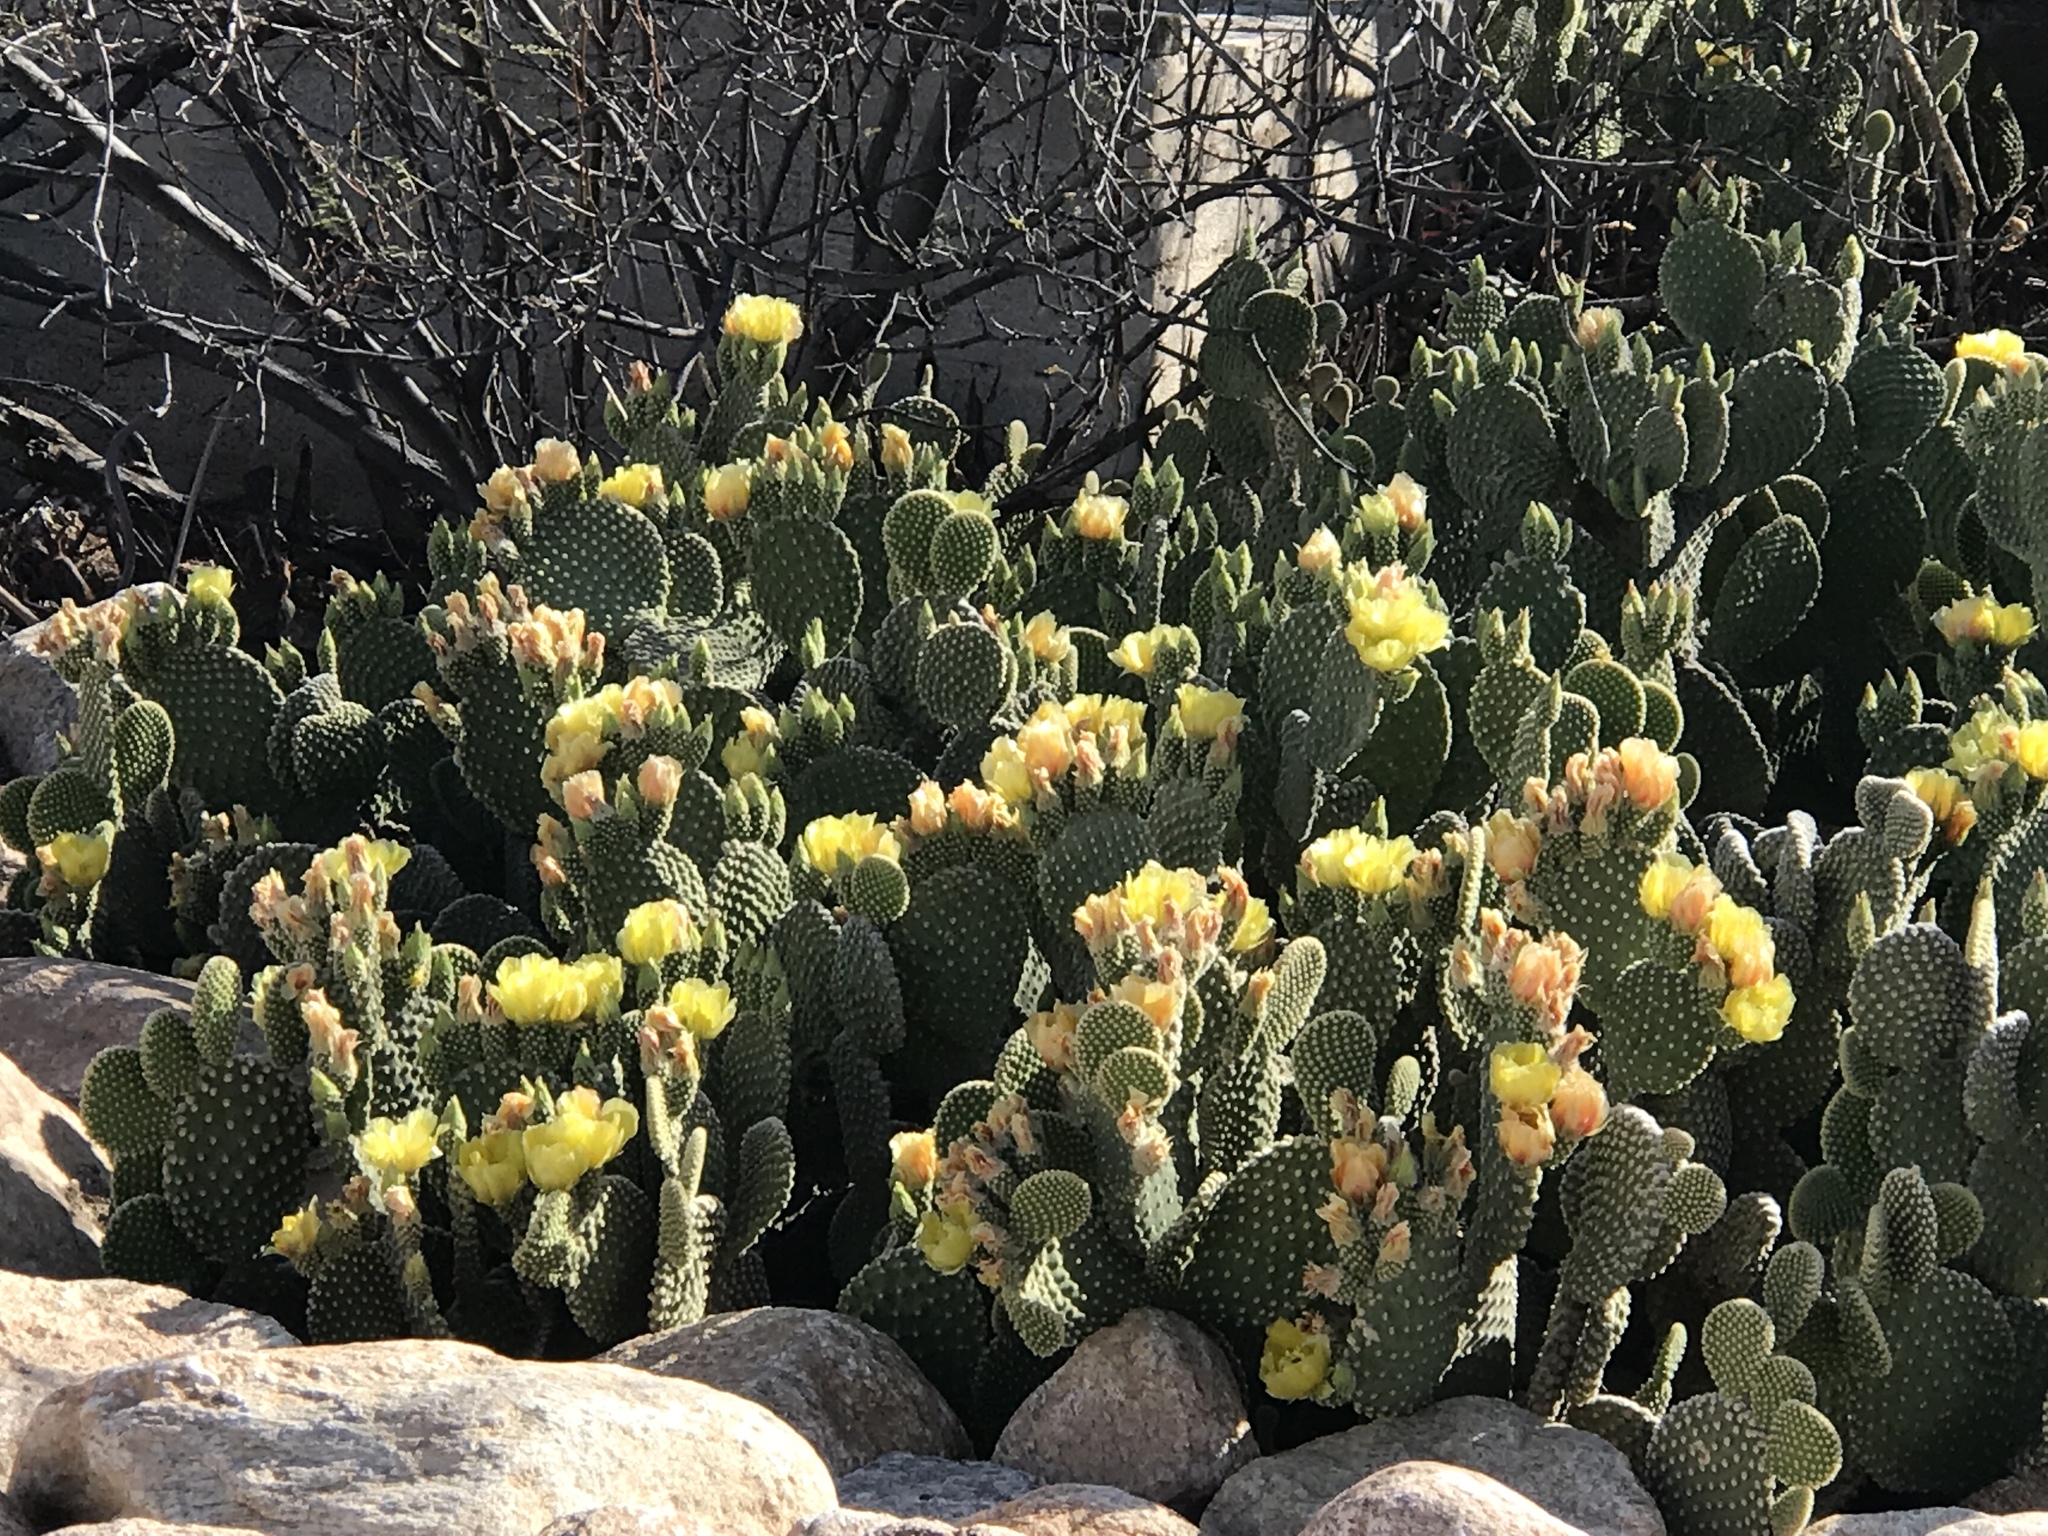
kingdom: Plantae
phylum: Tracheophyta
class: Magnoliopsida
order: Caryophyllales
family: Cactaceae
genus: Opuntia
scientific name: Opuntia microdasys
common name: Angel's-wings
